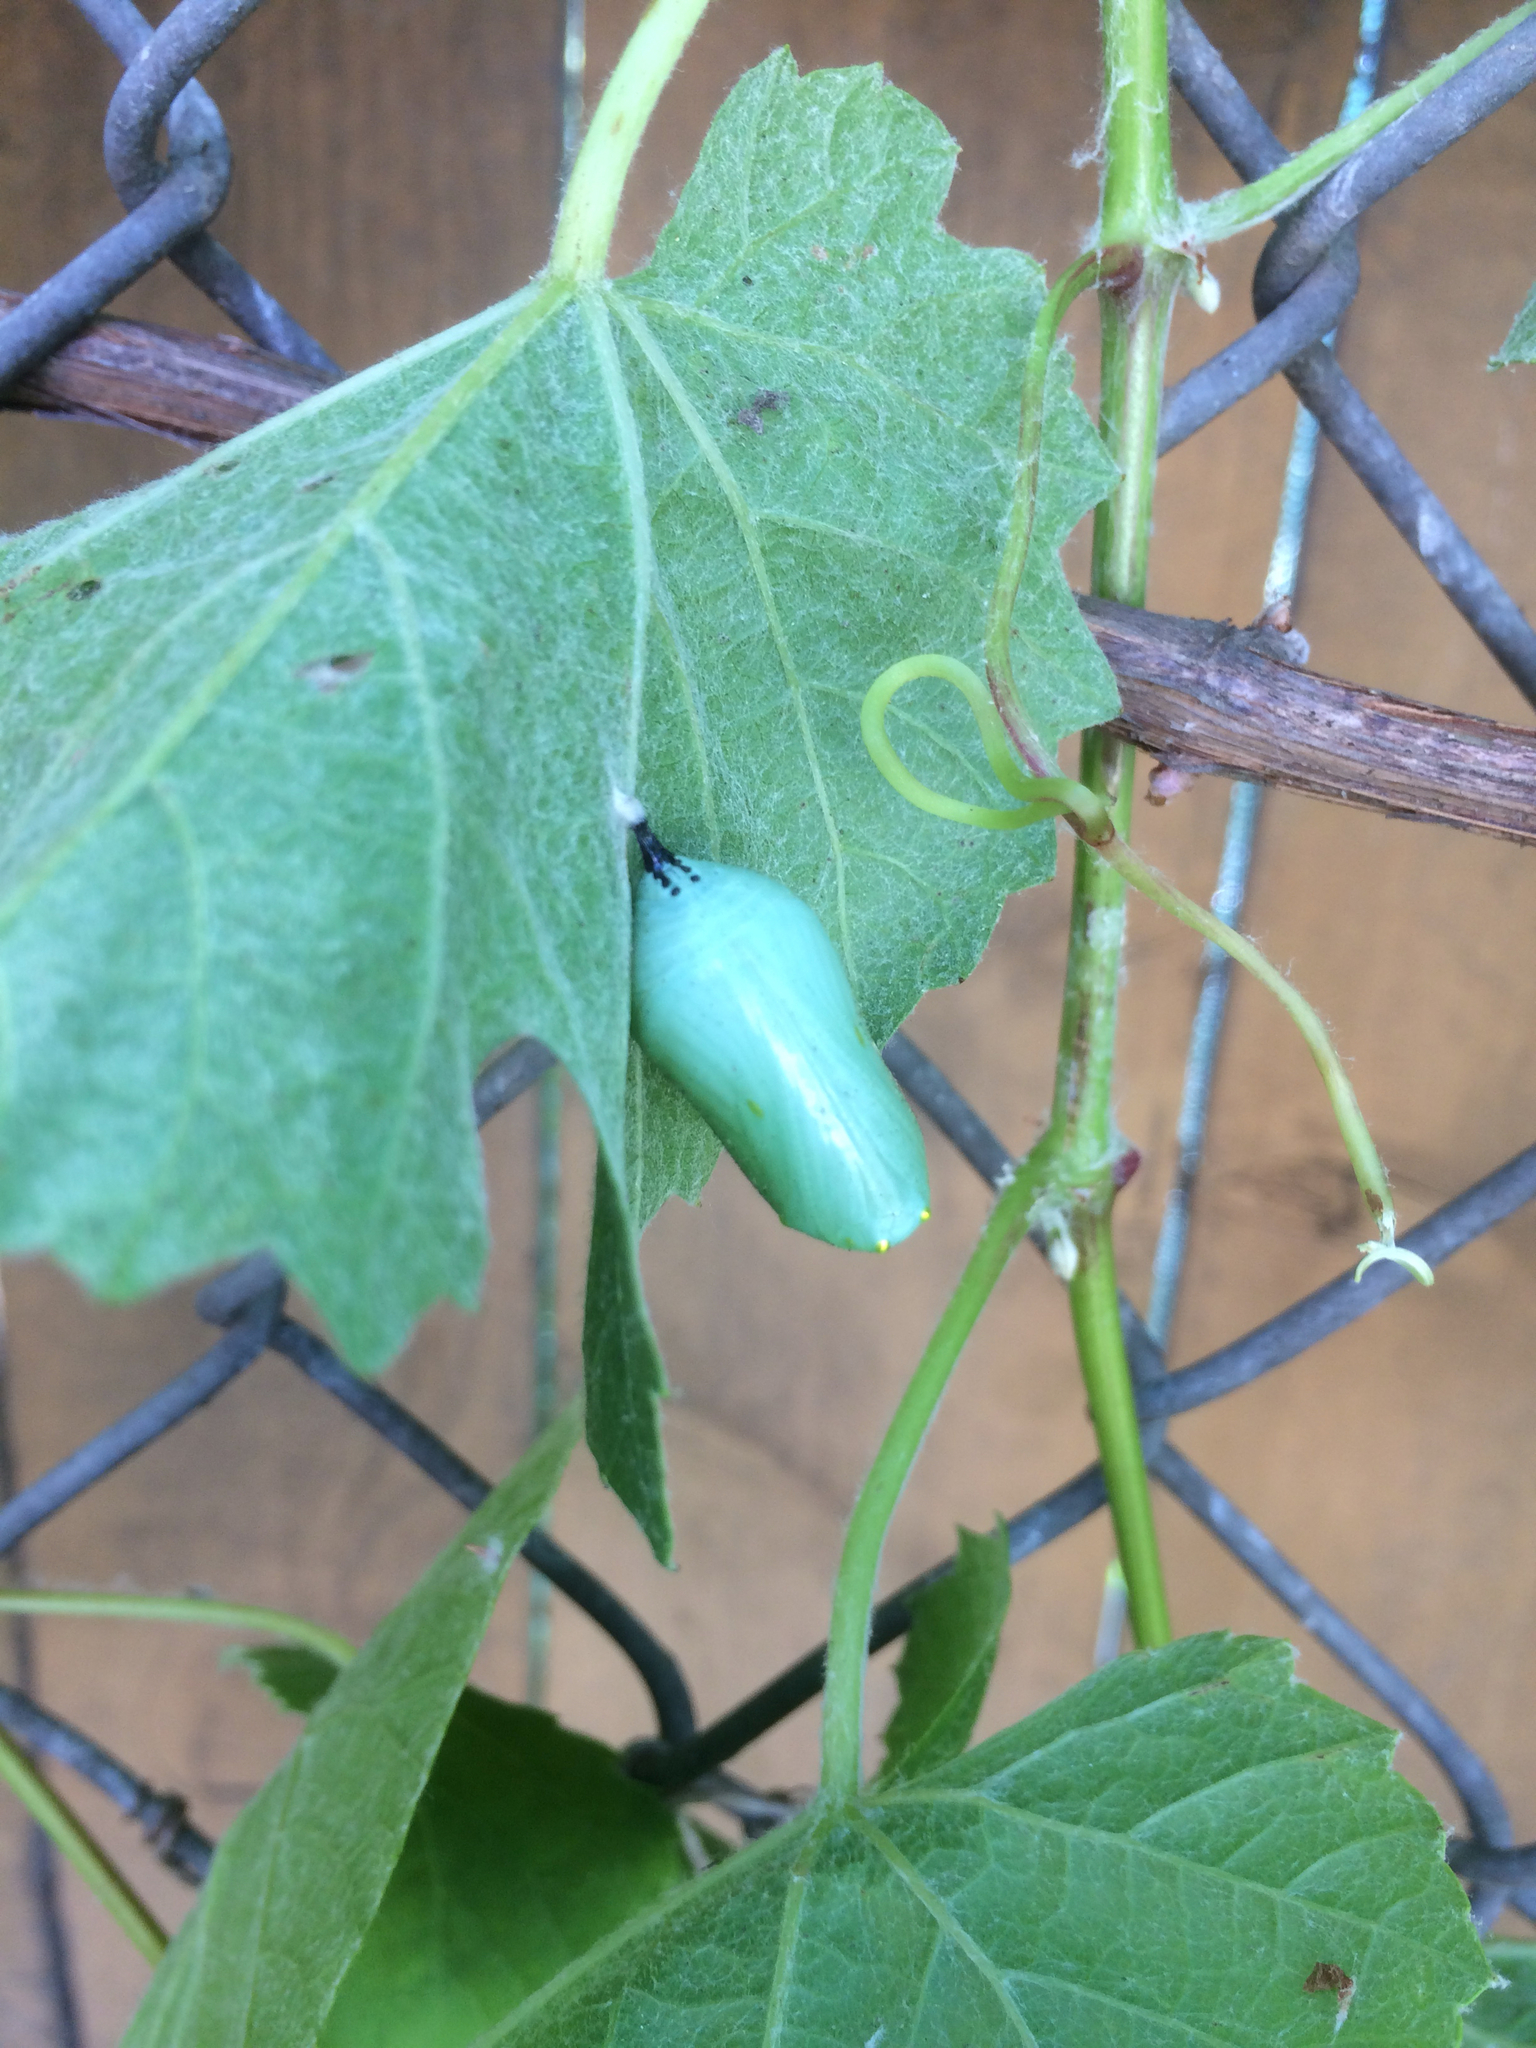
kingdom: Animalia
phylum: Arthropoda
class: Insecta
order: Lepidoptera
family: Nymphalidae
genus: Danaus
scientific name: Danaus plexippus
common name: Monarch
